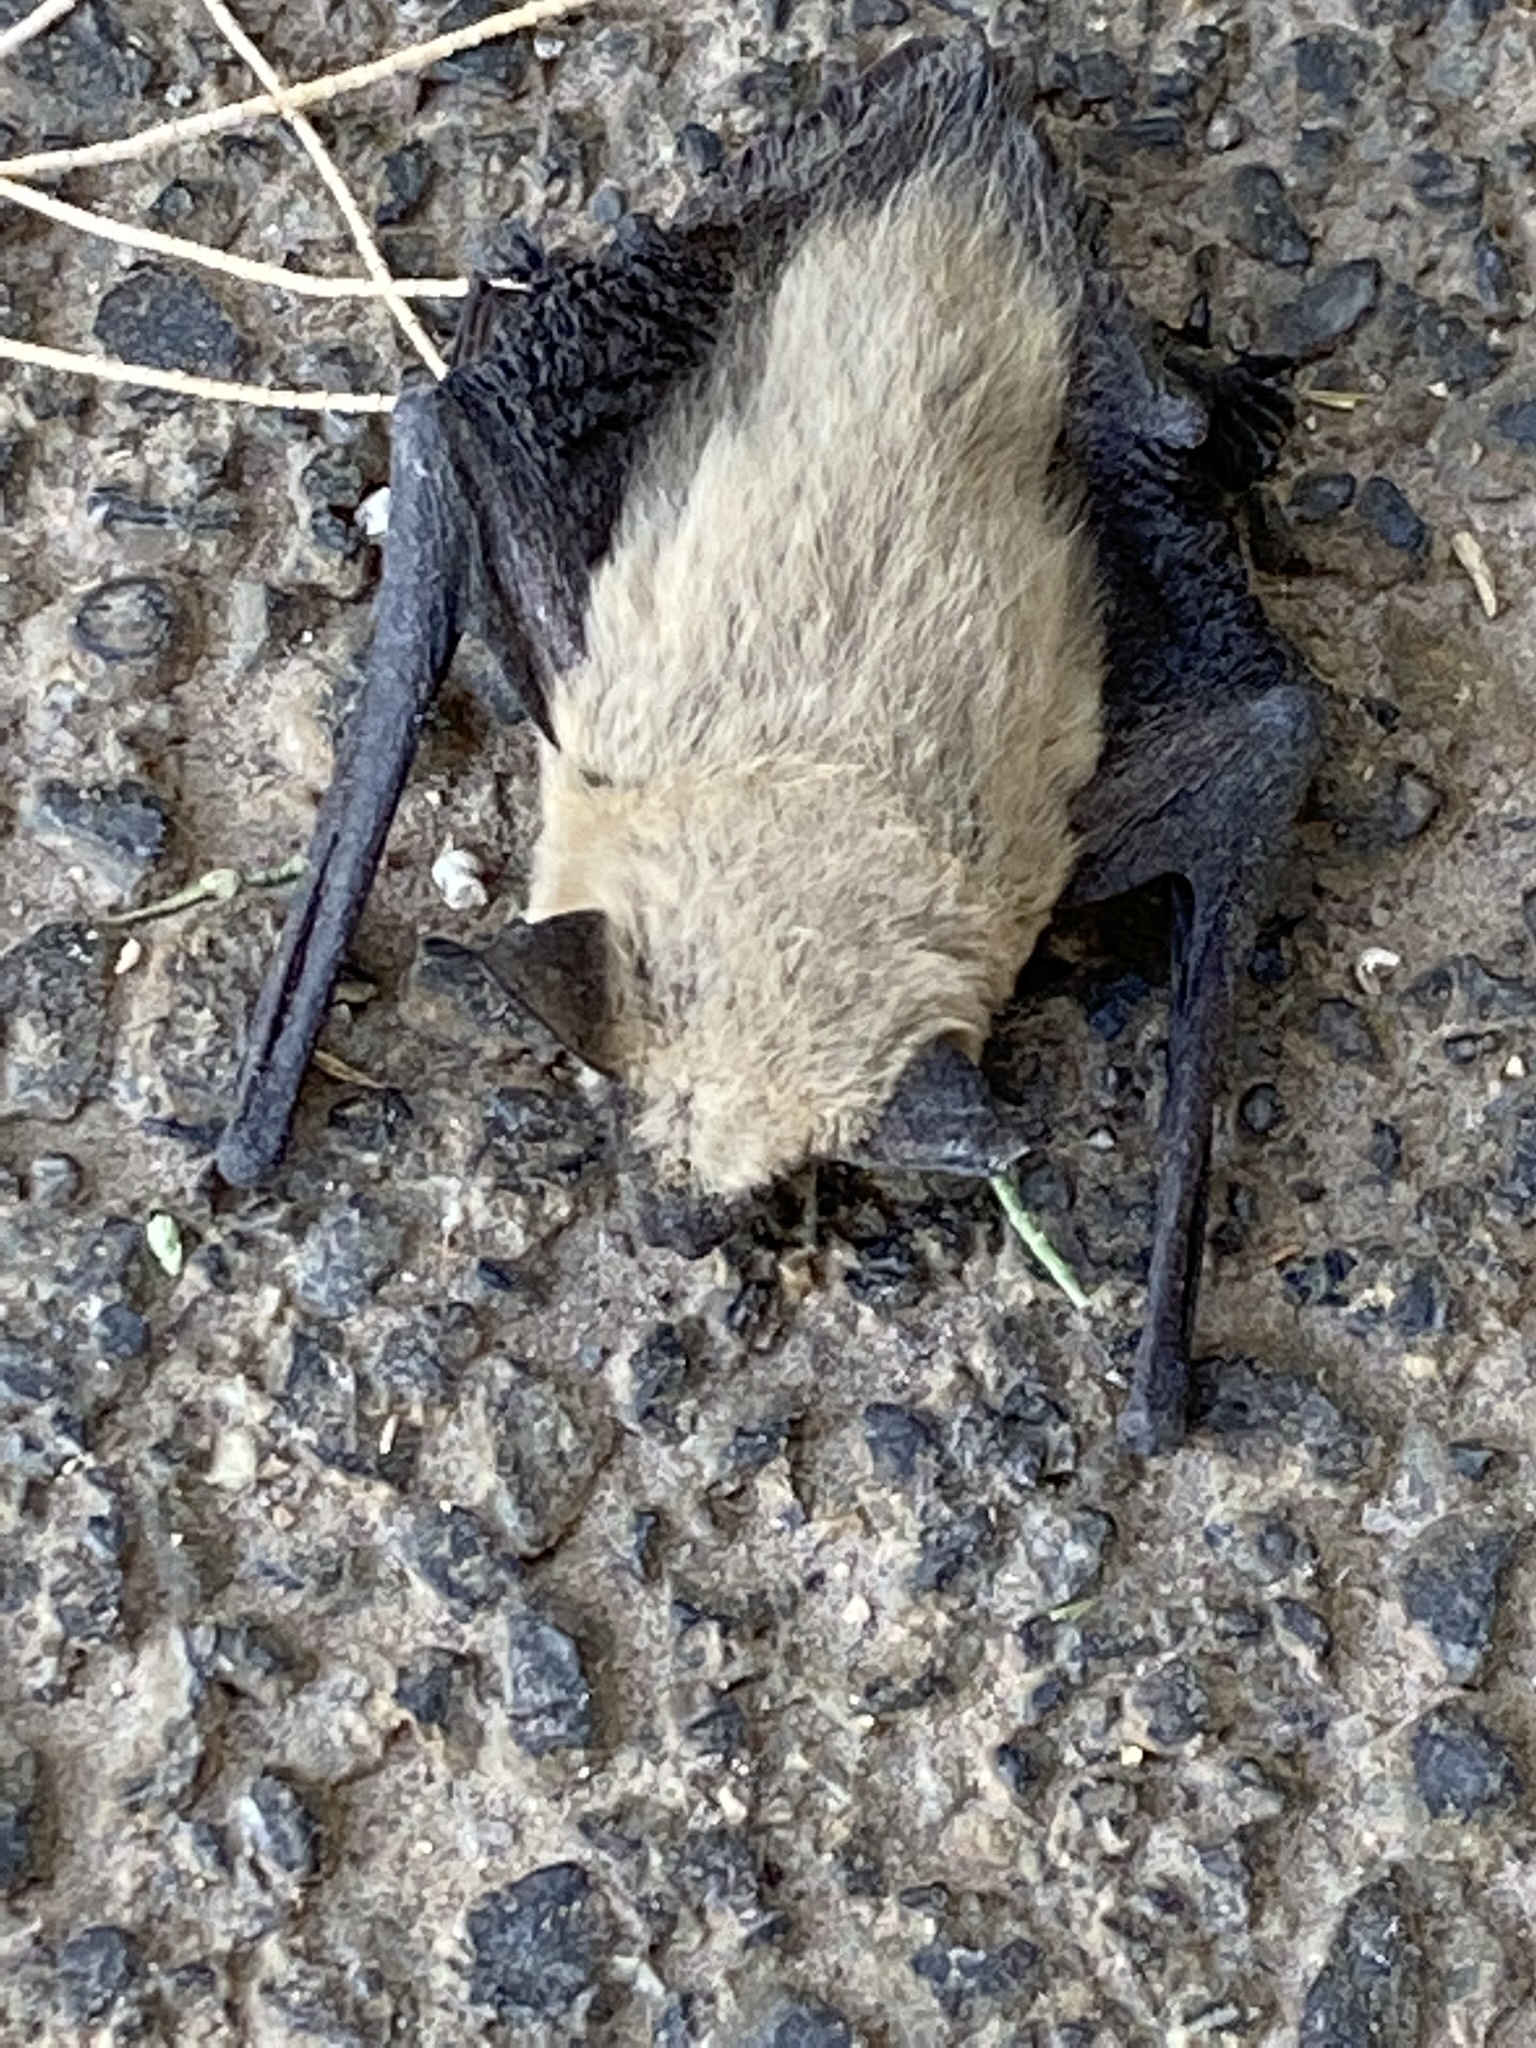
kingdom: Animalia
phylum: Chordata
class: Mammalia
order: Chiroptera
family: Vespertilionidae
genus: Parastrellus
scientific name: Parastrellus hesperus
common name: Canyon bat
